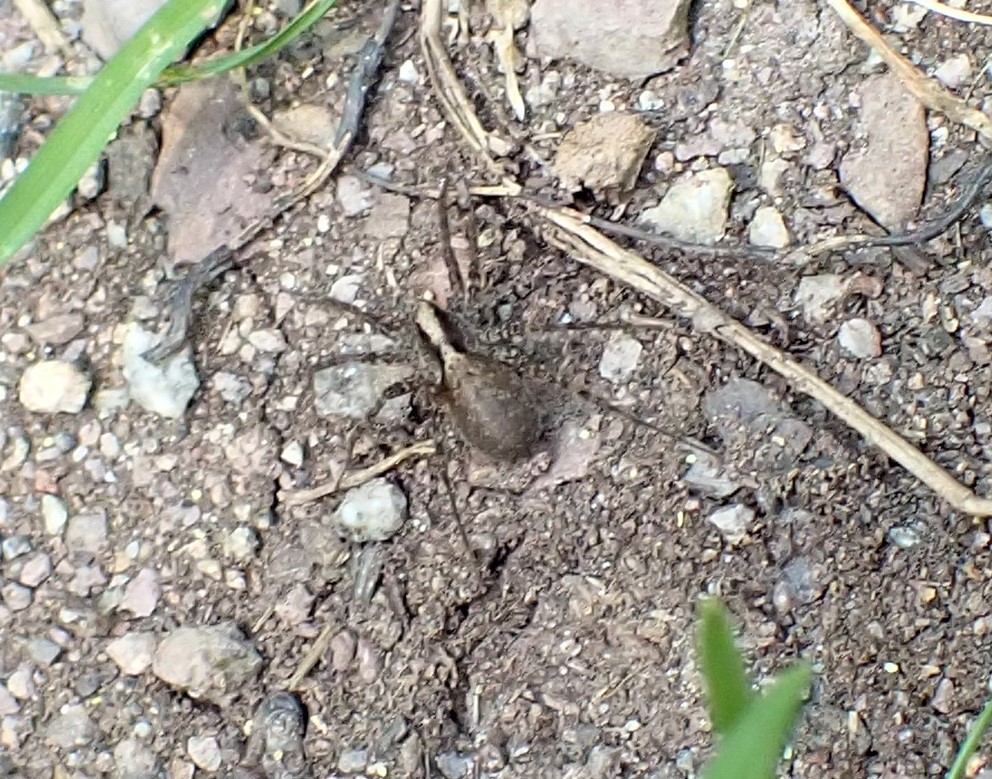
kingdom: Animalia
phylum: Arthropoda
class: Arachnida
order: Araneae
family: Lycosidae
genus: Pardosa
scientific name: Pardosa
